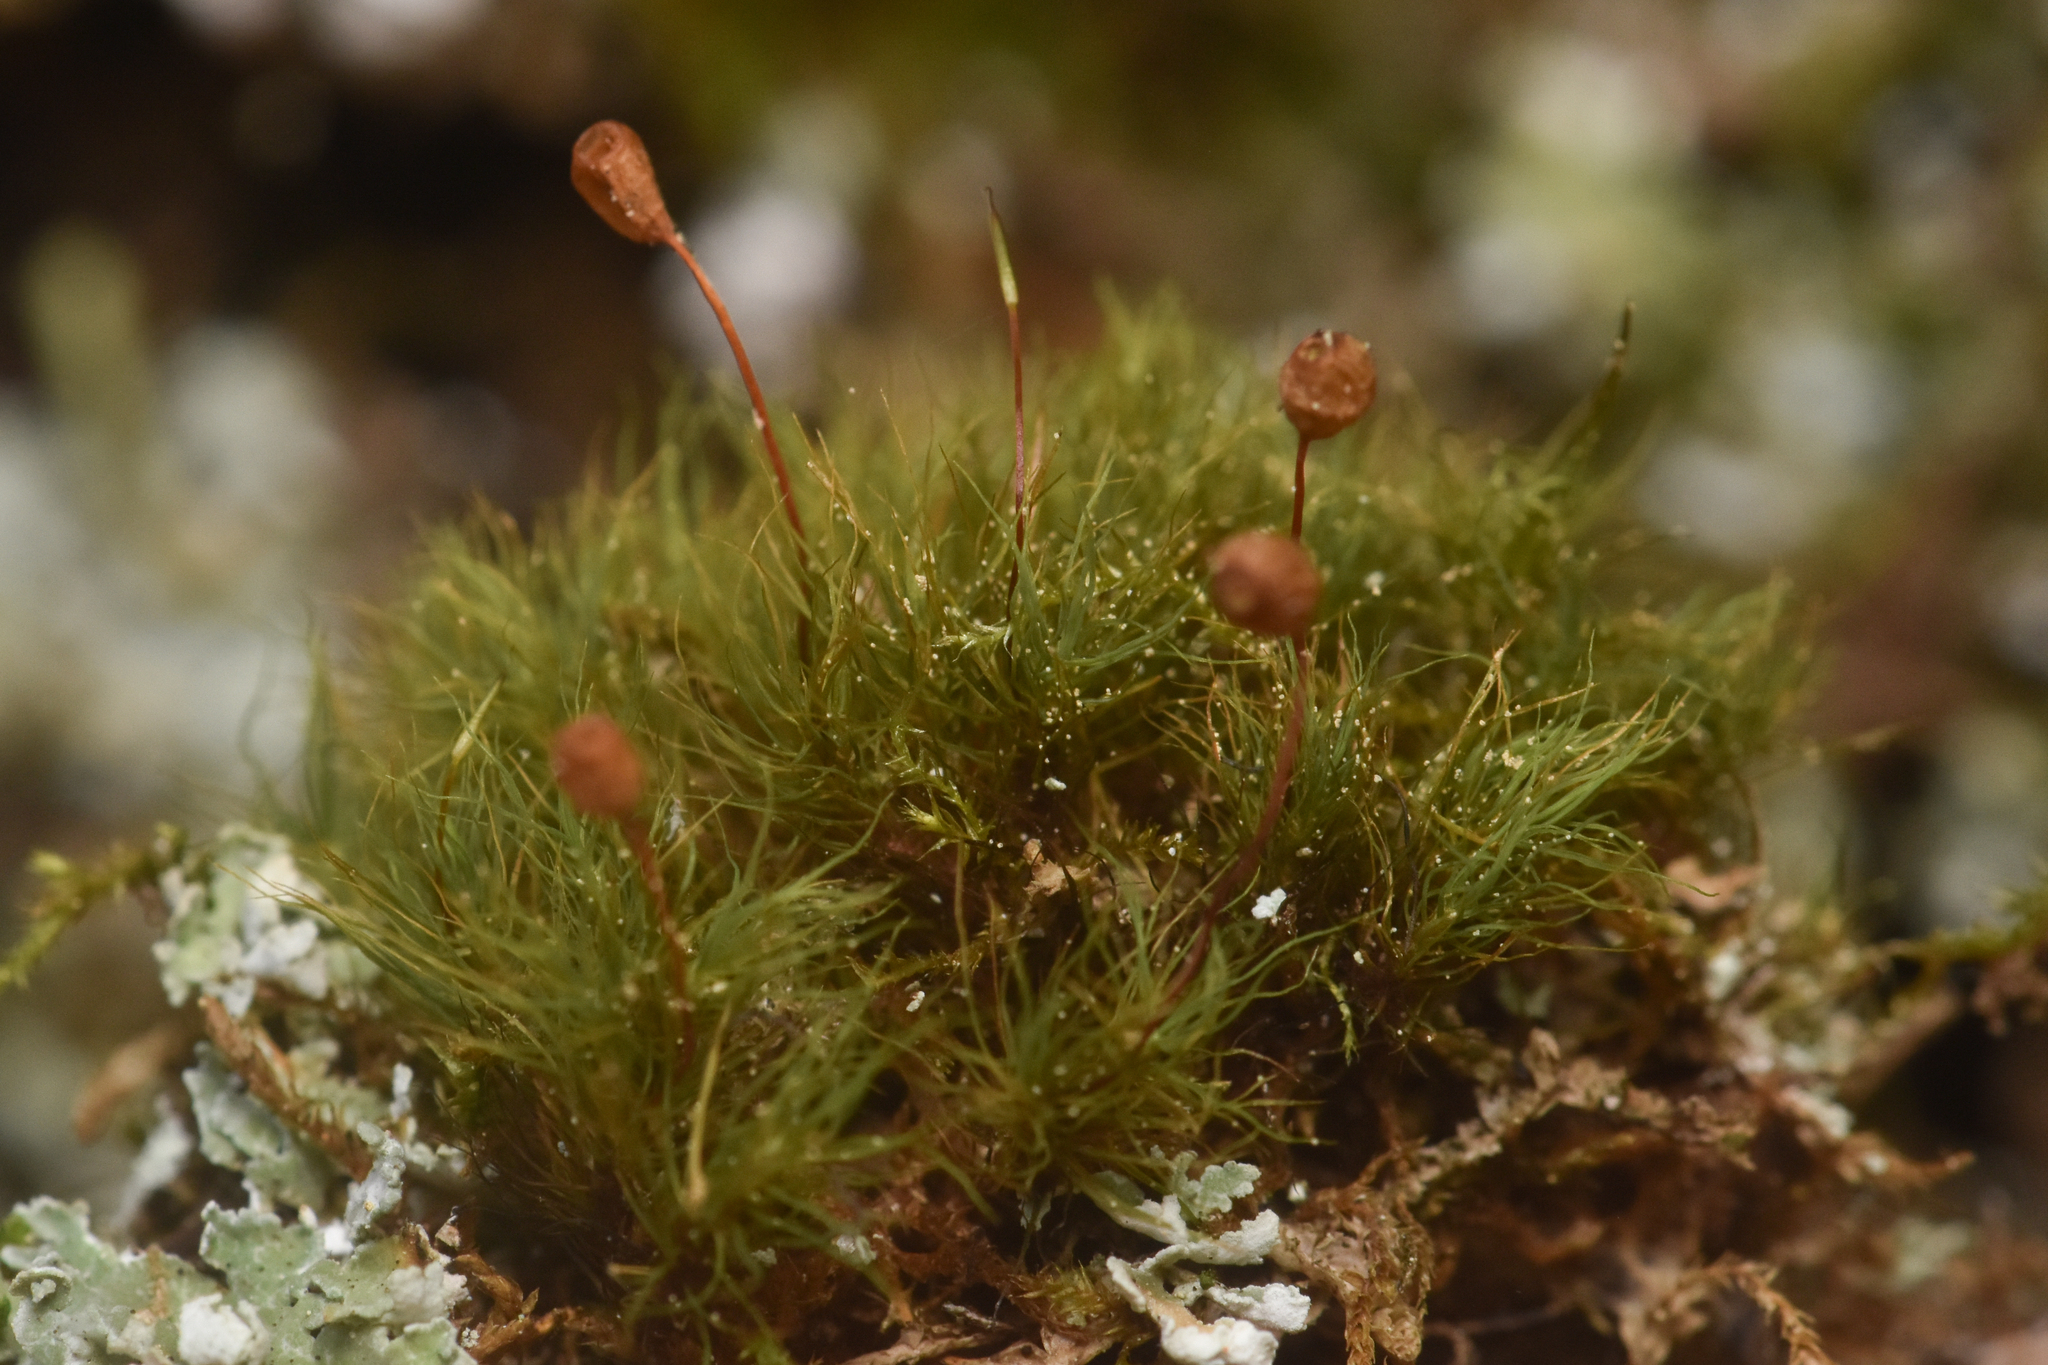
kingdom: Plantae
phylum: Bryophyta
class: Bryopsida
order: Bartramiales
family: Bartramiaceae
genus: Bartramia
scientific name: Bartramia ithyphylla
